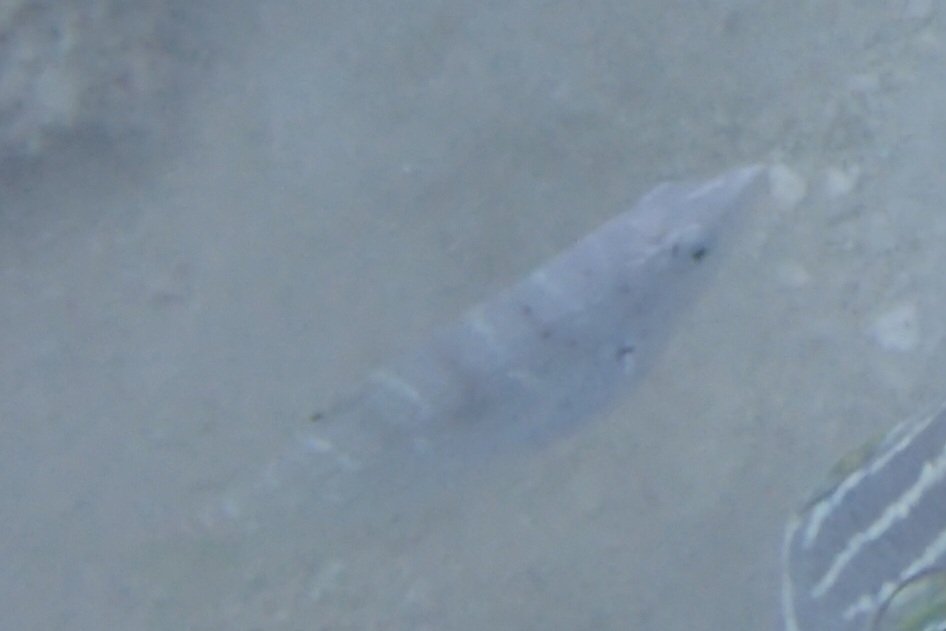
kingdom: Animalia
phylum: Chordata
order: Perciformes
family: Labridae
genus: Coris
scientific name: Coris batuensis
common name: Batu coris
